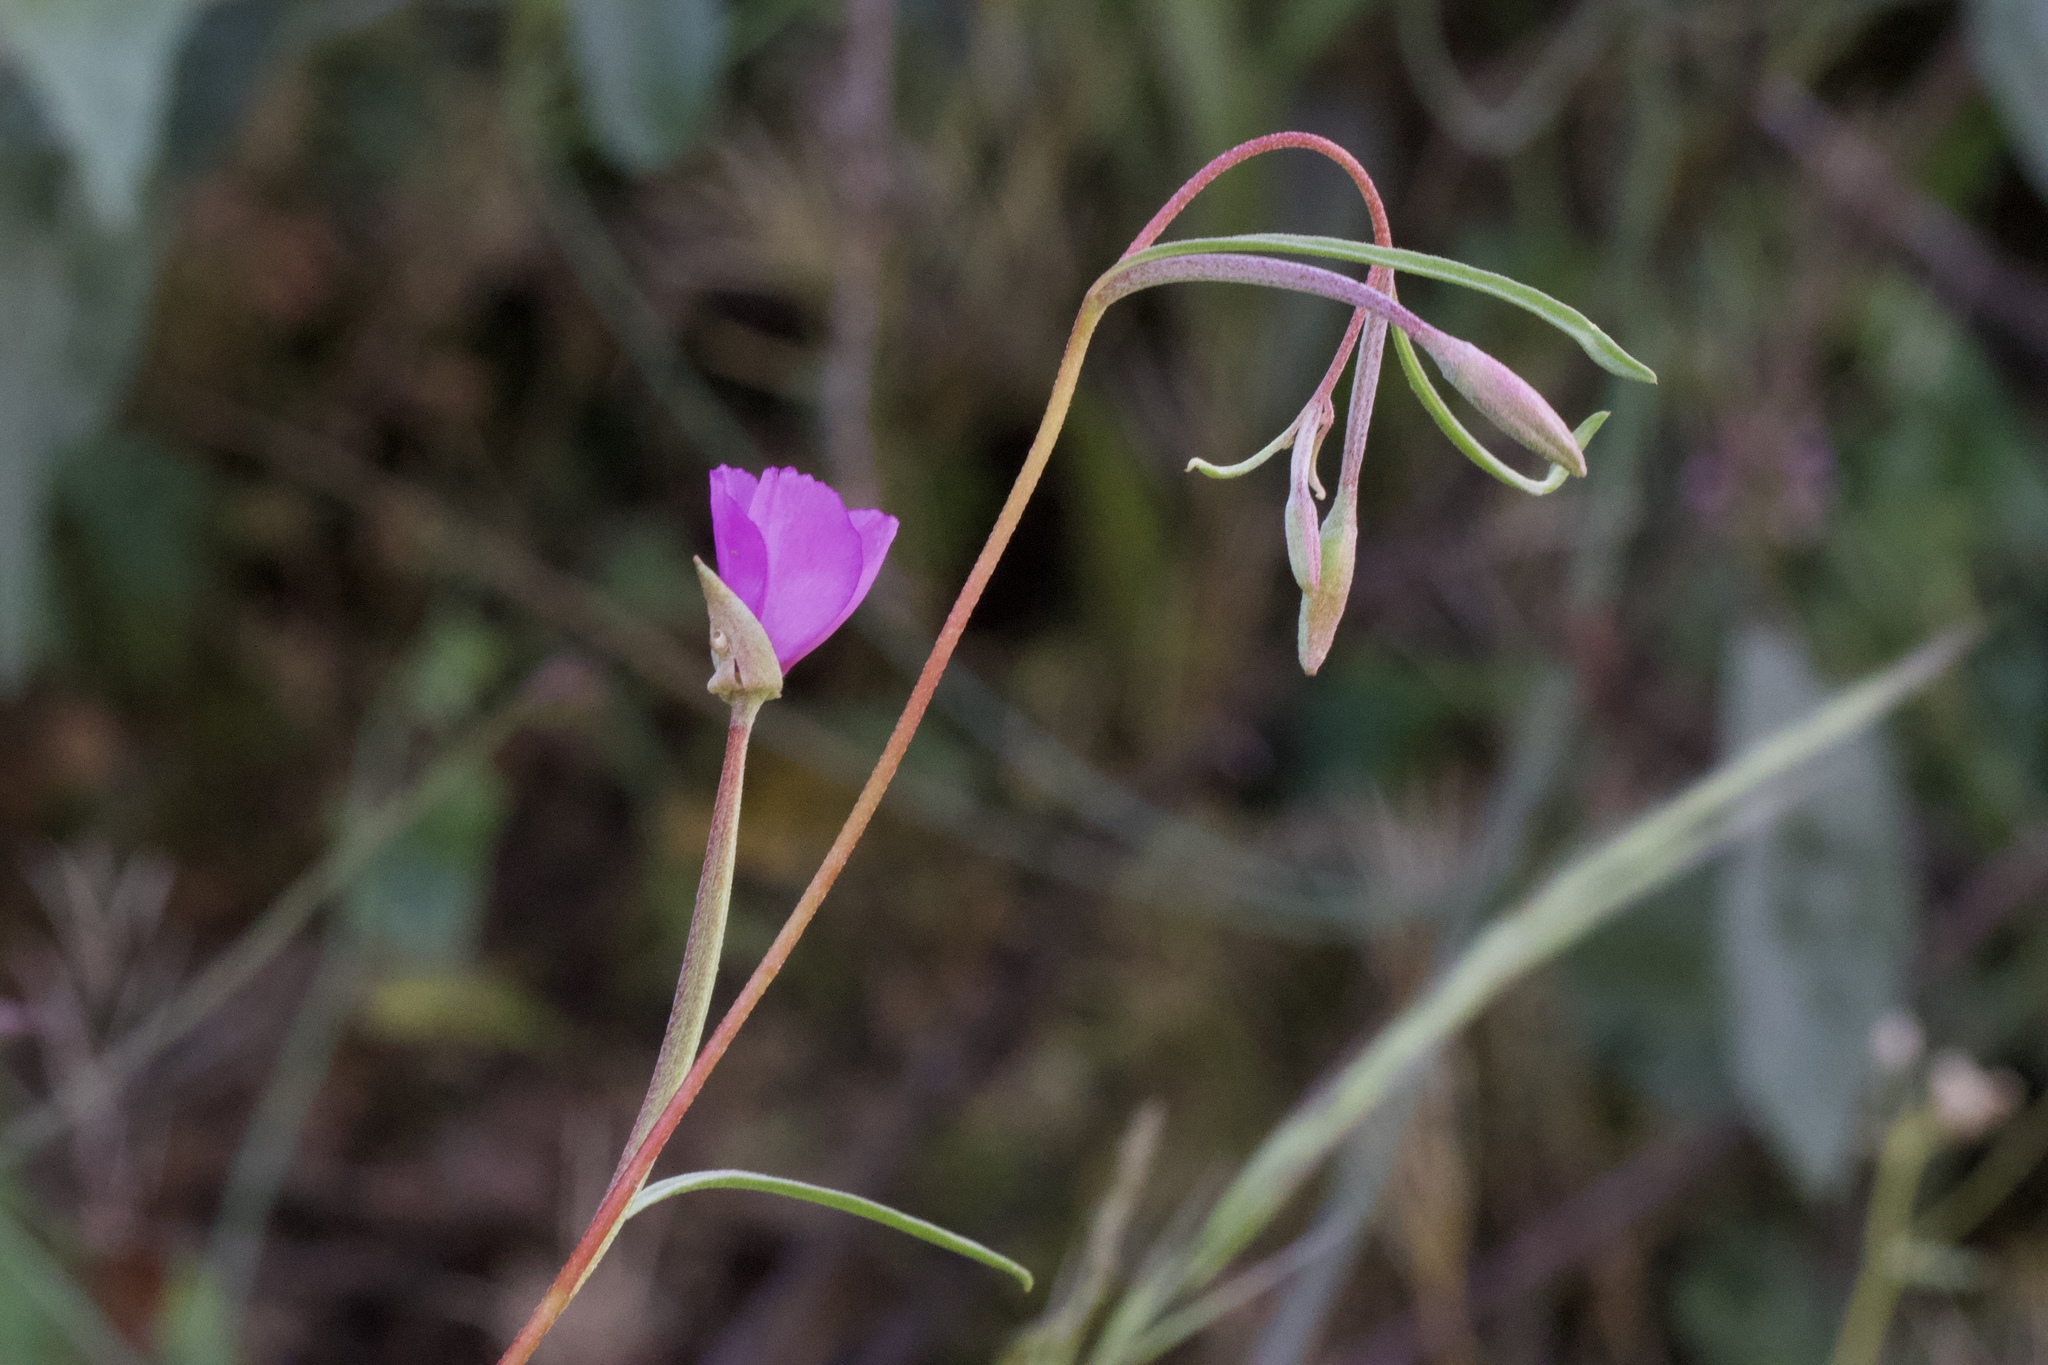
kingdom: Plantae
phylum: Tracheophyta
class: Magnoliopsida
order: Myrtales
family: Onagraceae
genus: Clarkia
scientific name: Clarkia gracilis
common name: Graceful clarkia
